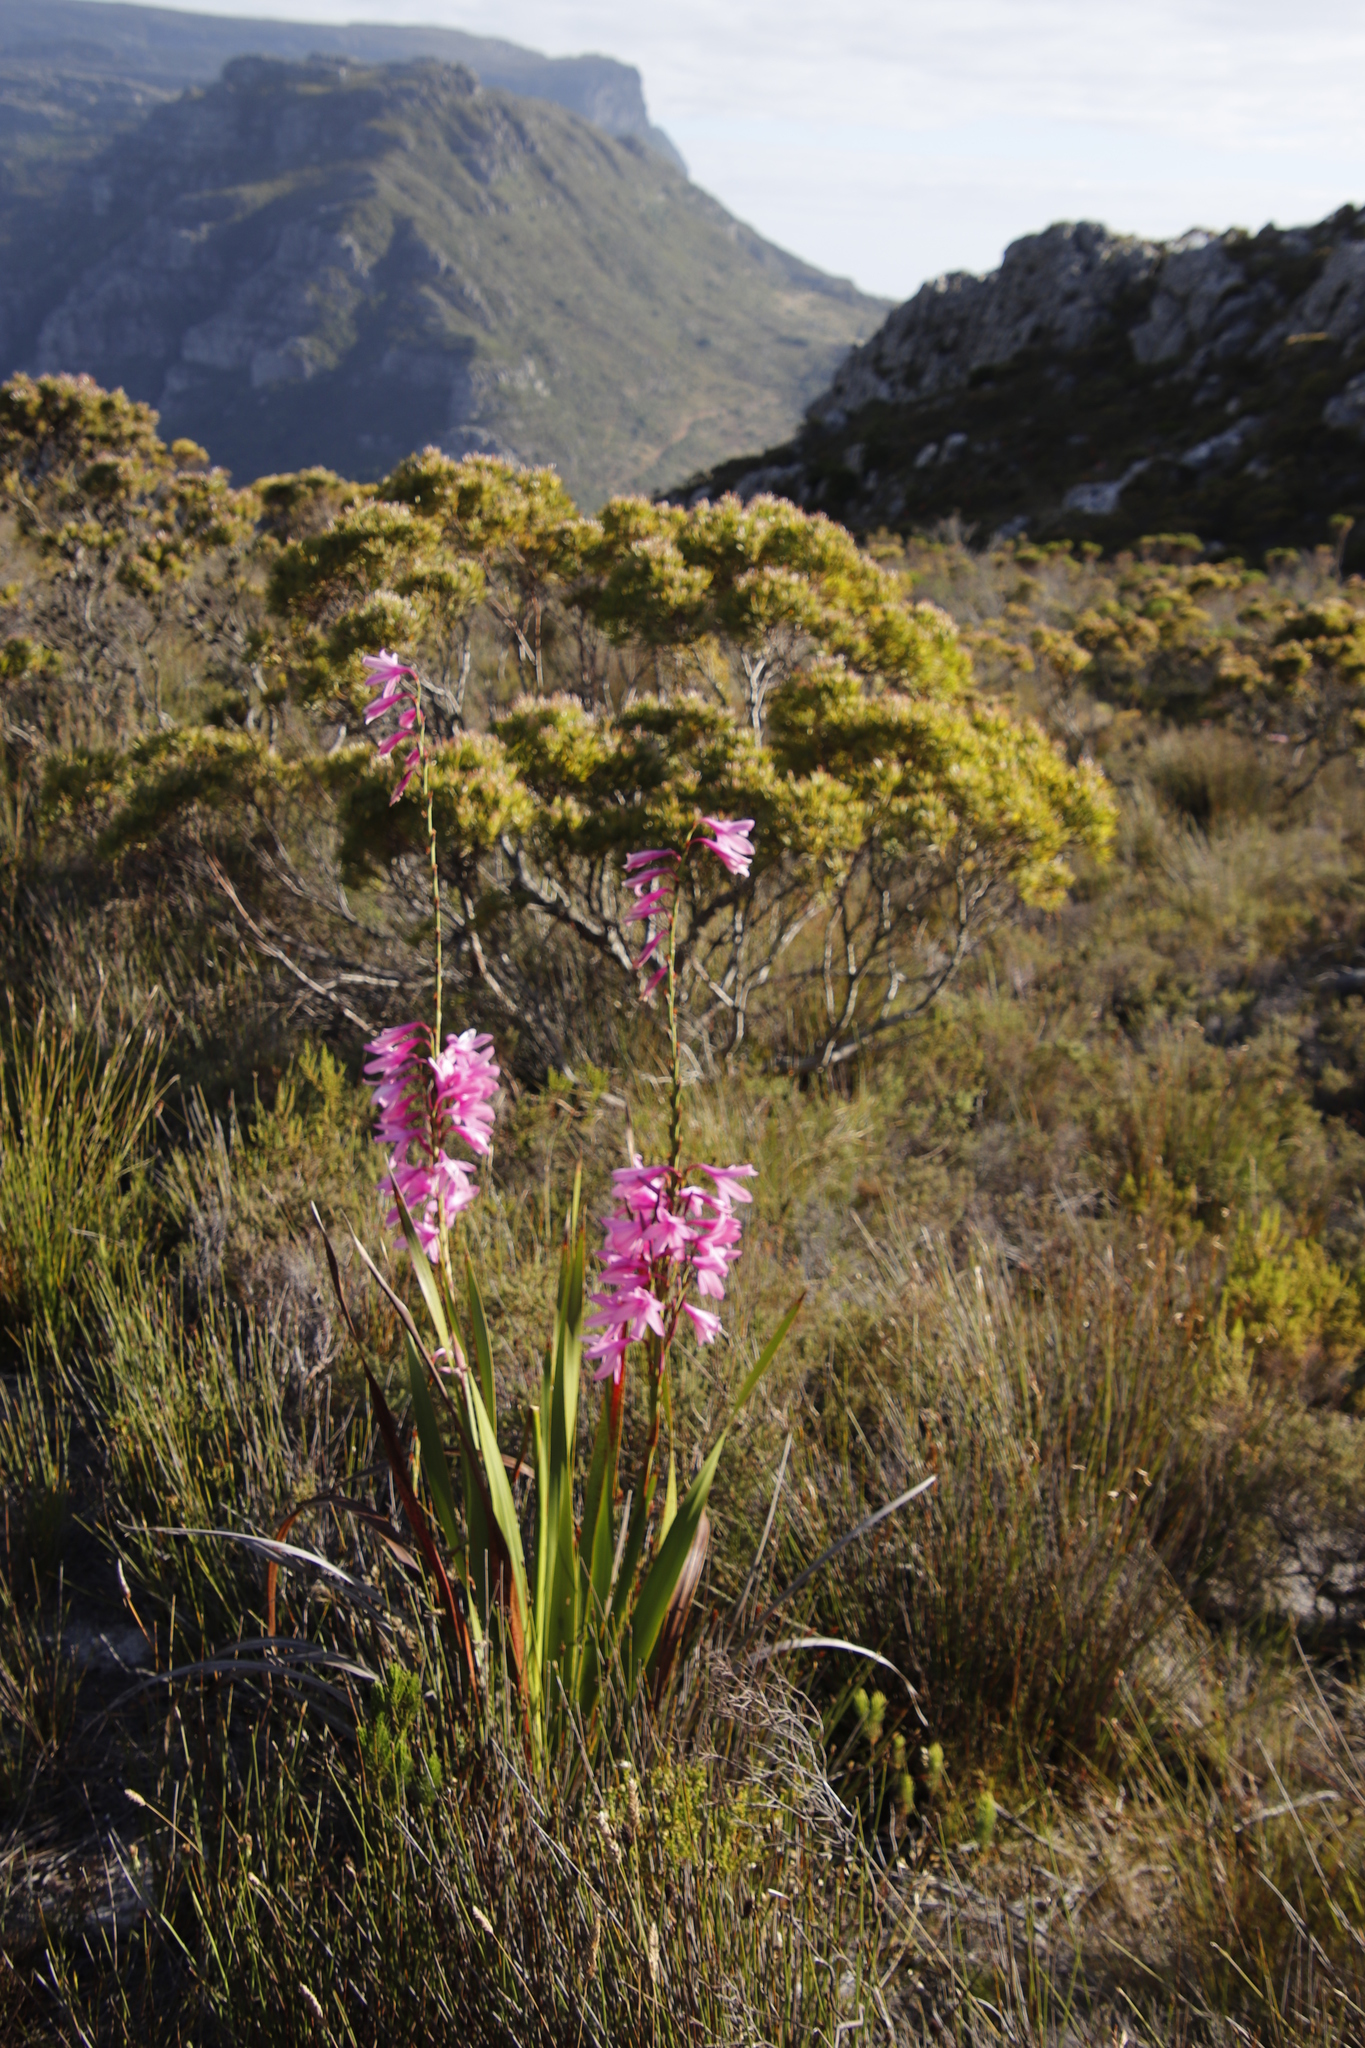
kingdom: Plantae
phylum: Tracheophyta
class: Liliopsida
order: Asparagales
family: Iridaceae
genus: Watsonia
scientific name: Watsonia borbonica
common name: Bugle-lily
